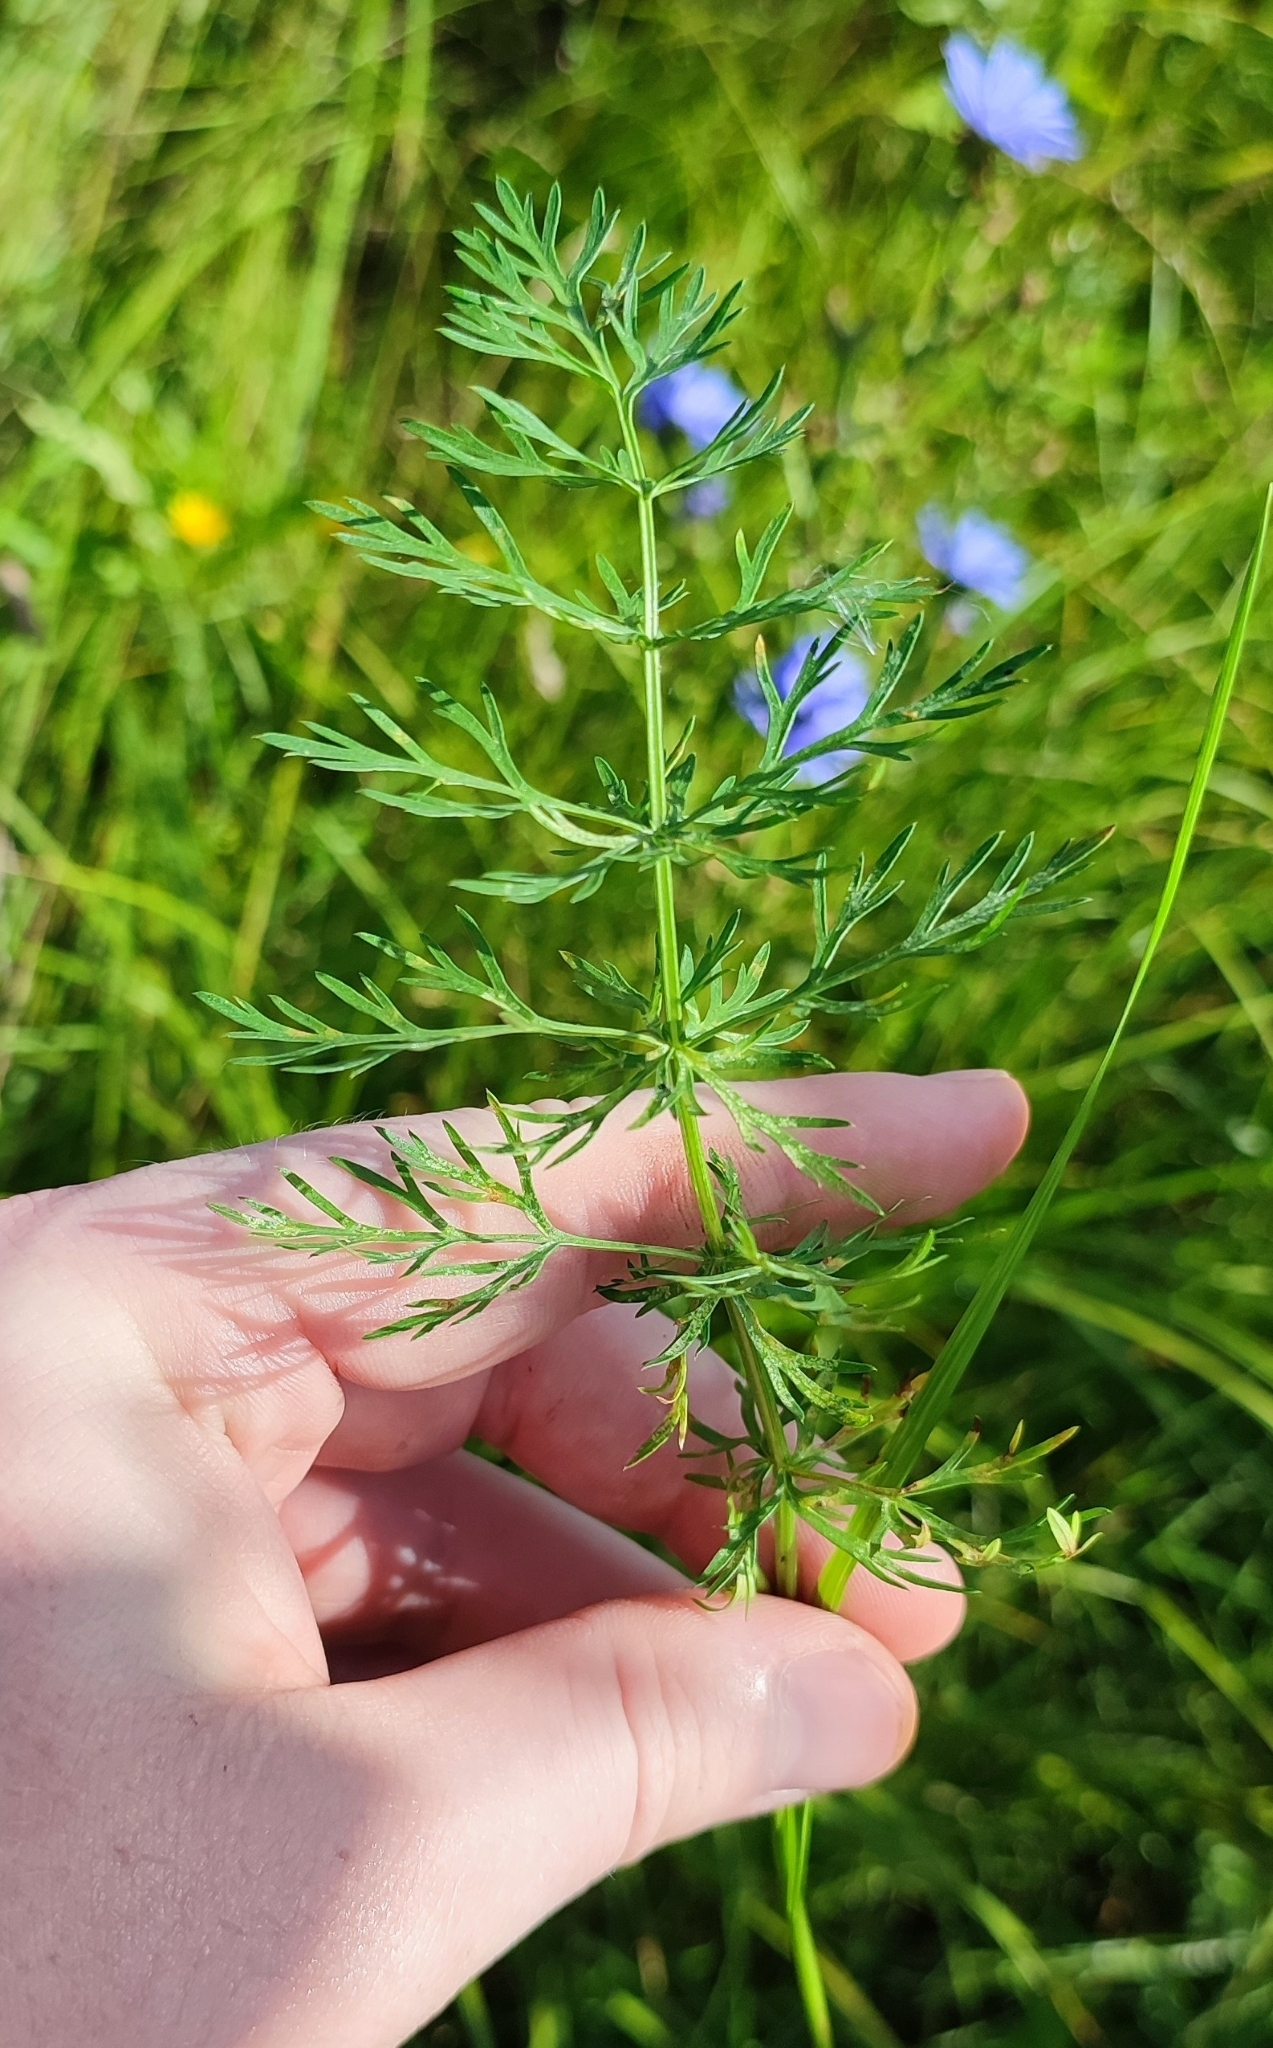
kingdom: Plantae
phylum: Tracheophyta
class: Magnoliopsida
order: Apiales
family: Apiaceae
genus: Carum
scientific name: Carum carvi
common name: Caraway
